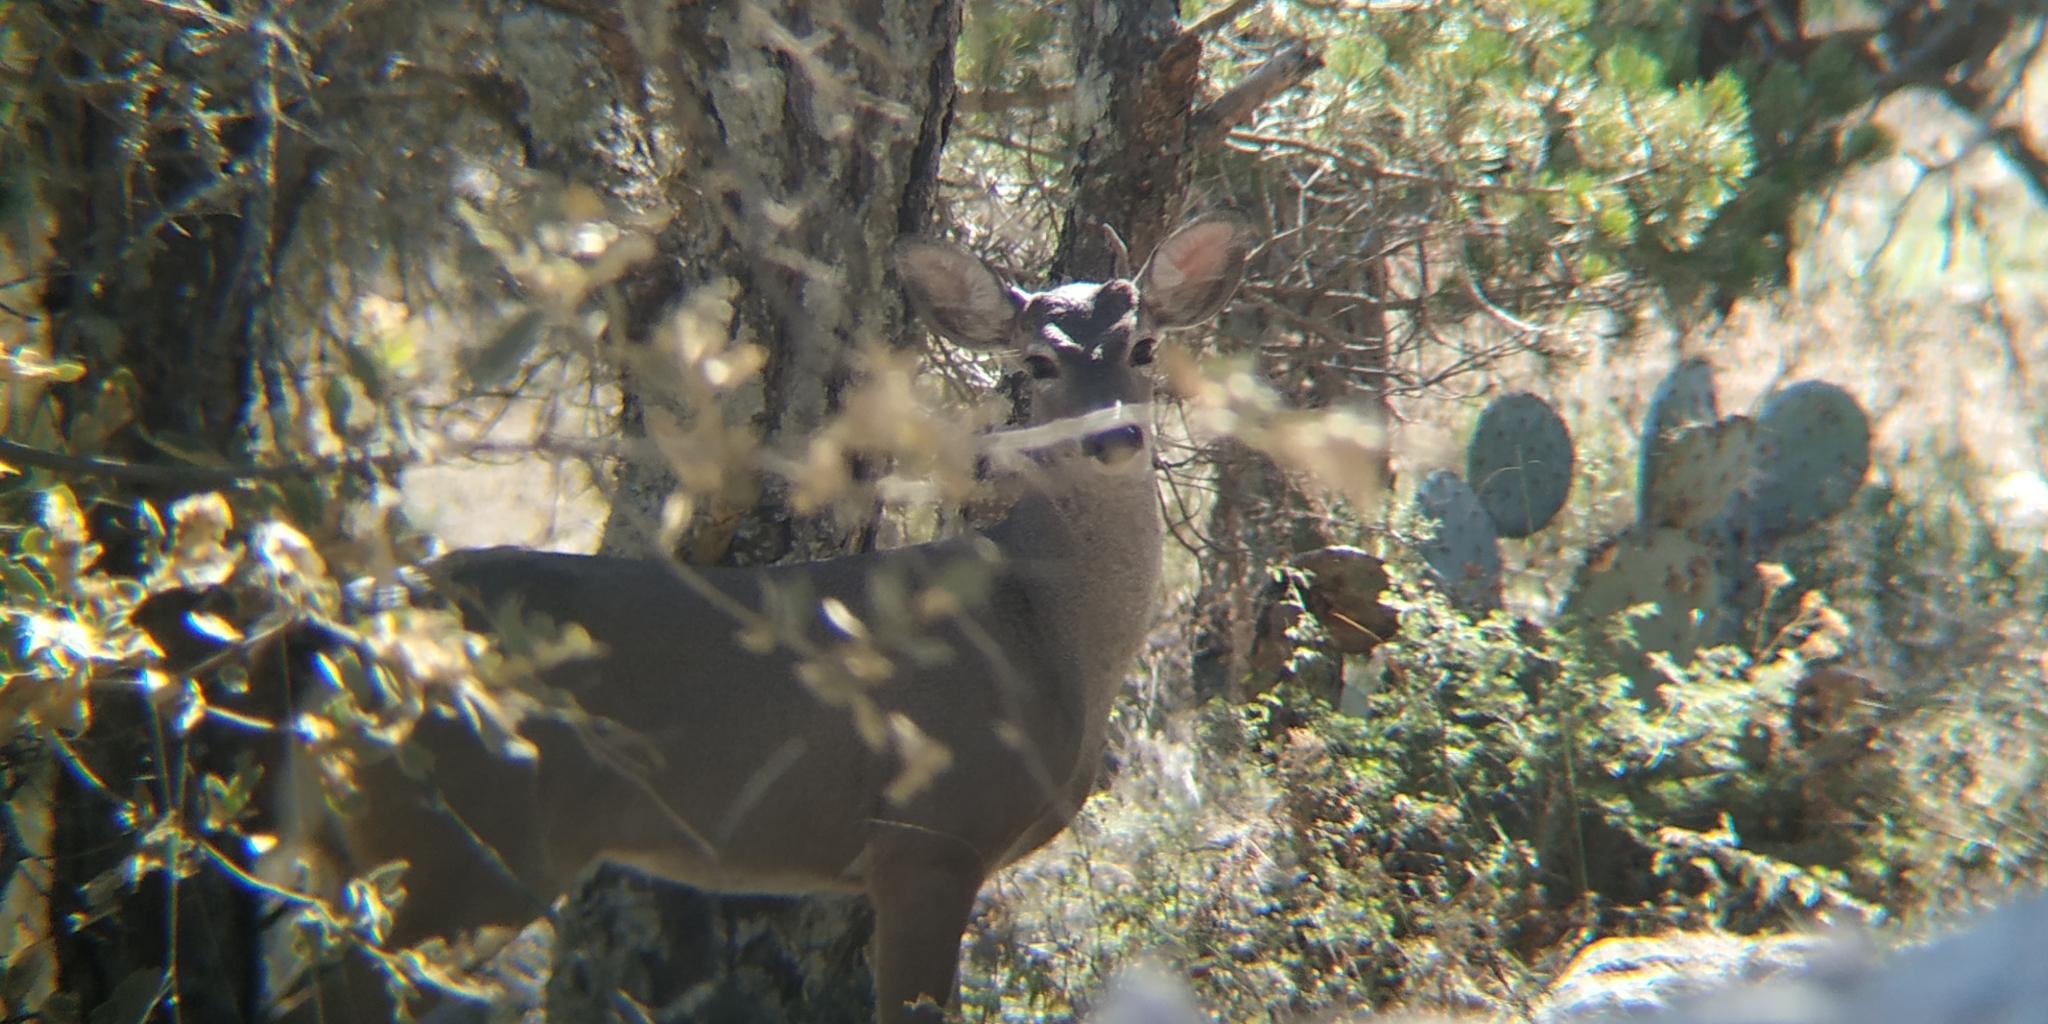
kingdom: Animalia
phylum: Chordata
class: Mammalia
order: Artiodactyla
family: Cervidae
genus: Odocoileus
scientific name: Odocoileus virginianus
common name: White-tailed deer
